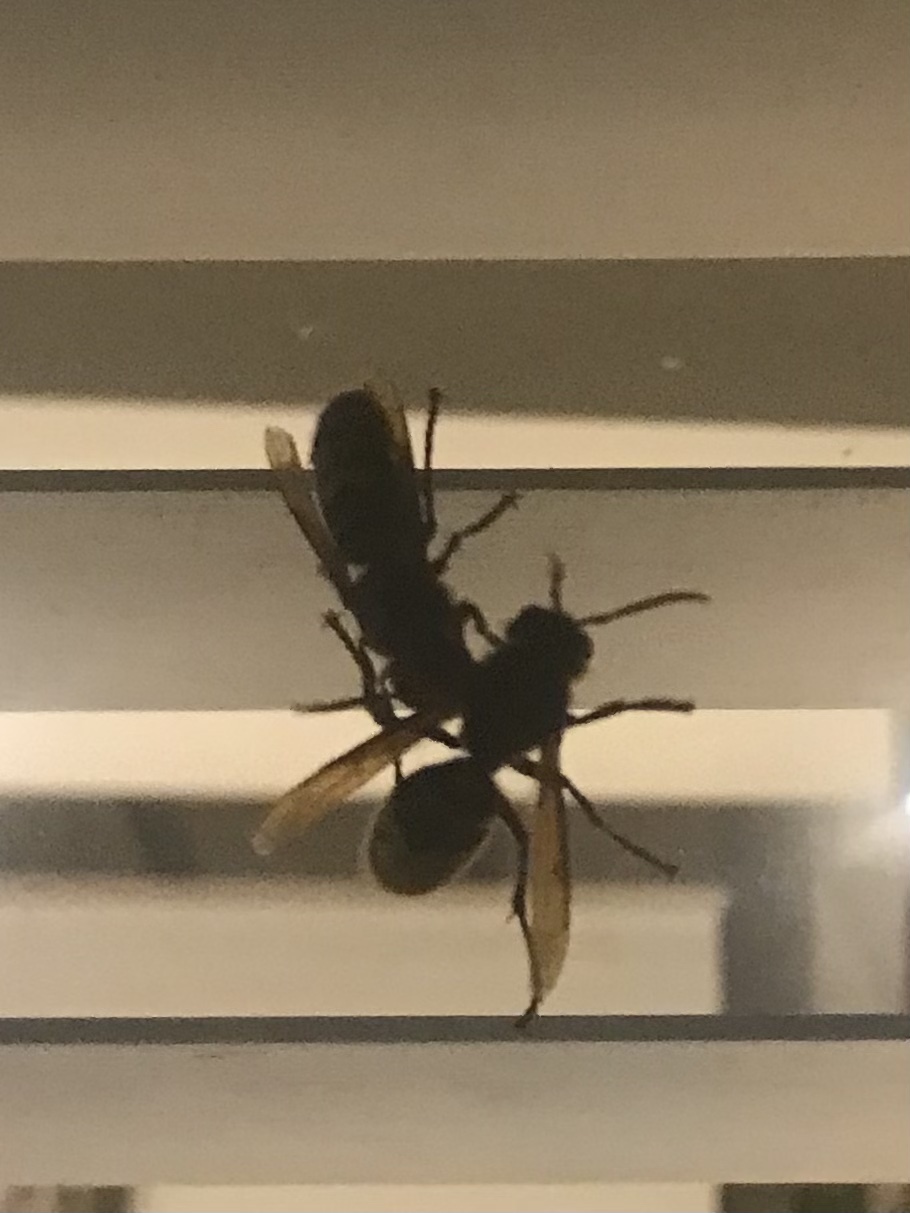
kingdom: Animalia
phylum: Arthropoda
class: Insecta
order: Hymenoptera
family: Vespidae
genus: Vespa
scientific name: Vespa crabro
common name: Hornet
